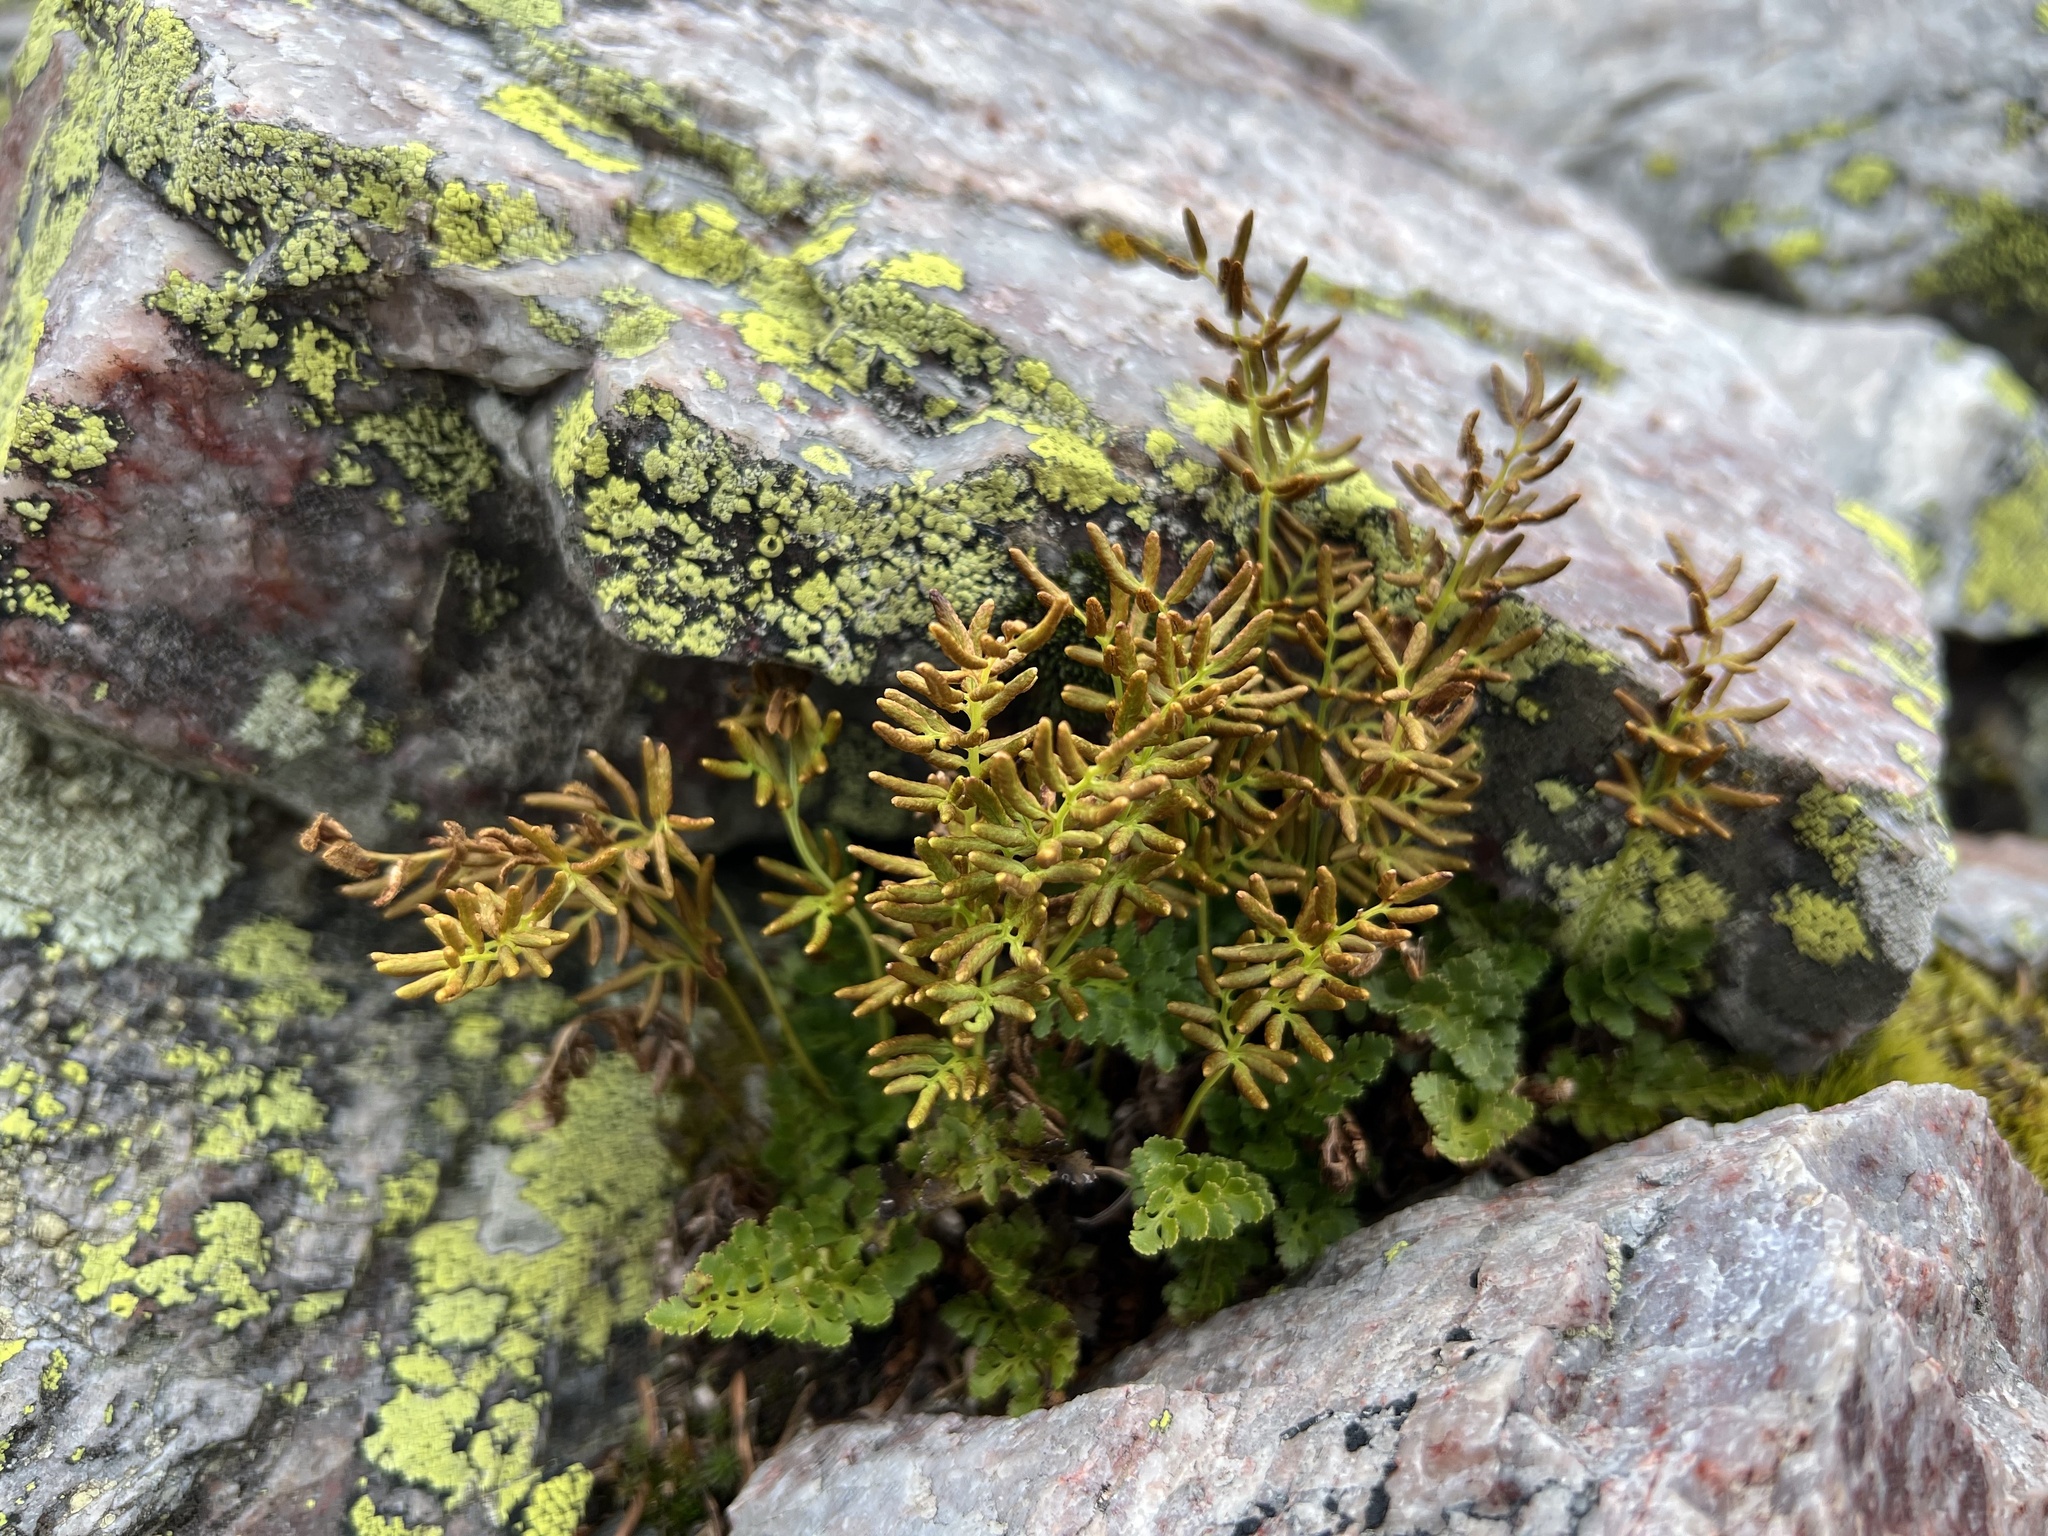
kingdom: Plantae
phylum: Tracheophyta
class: Polypodiopsida
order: Polypodiales
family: Pteridaceae
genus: Cryptogramma
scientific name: Cryptogramma acrostichoides
